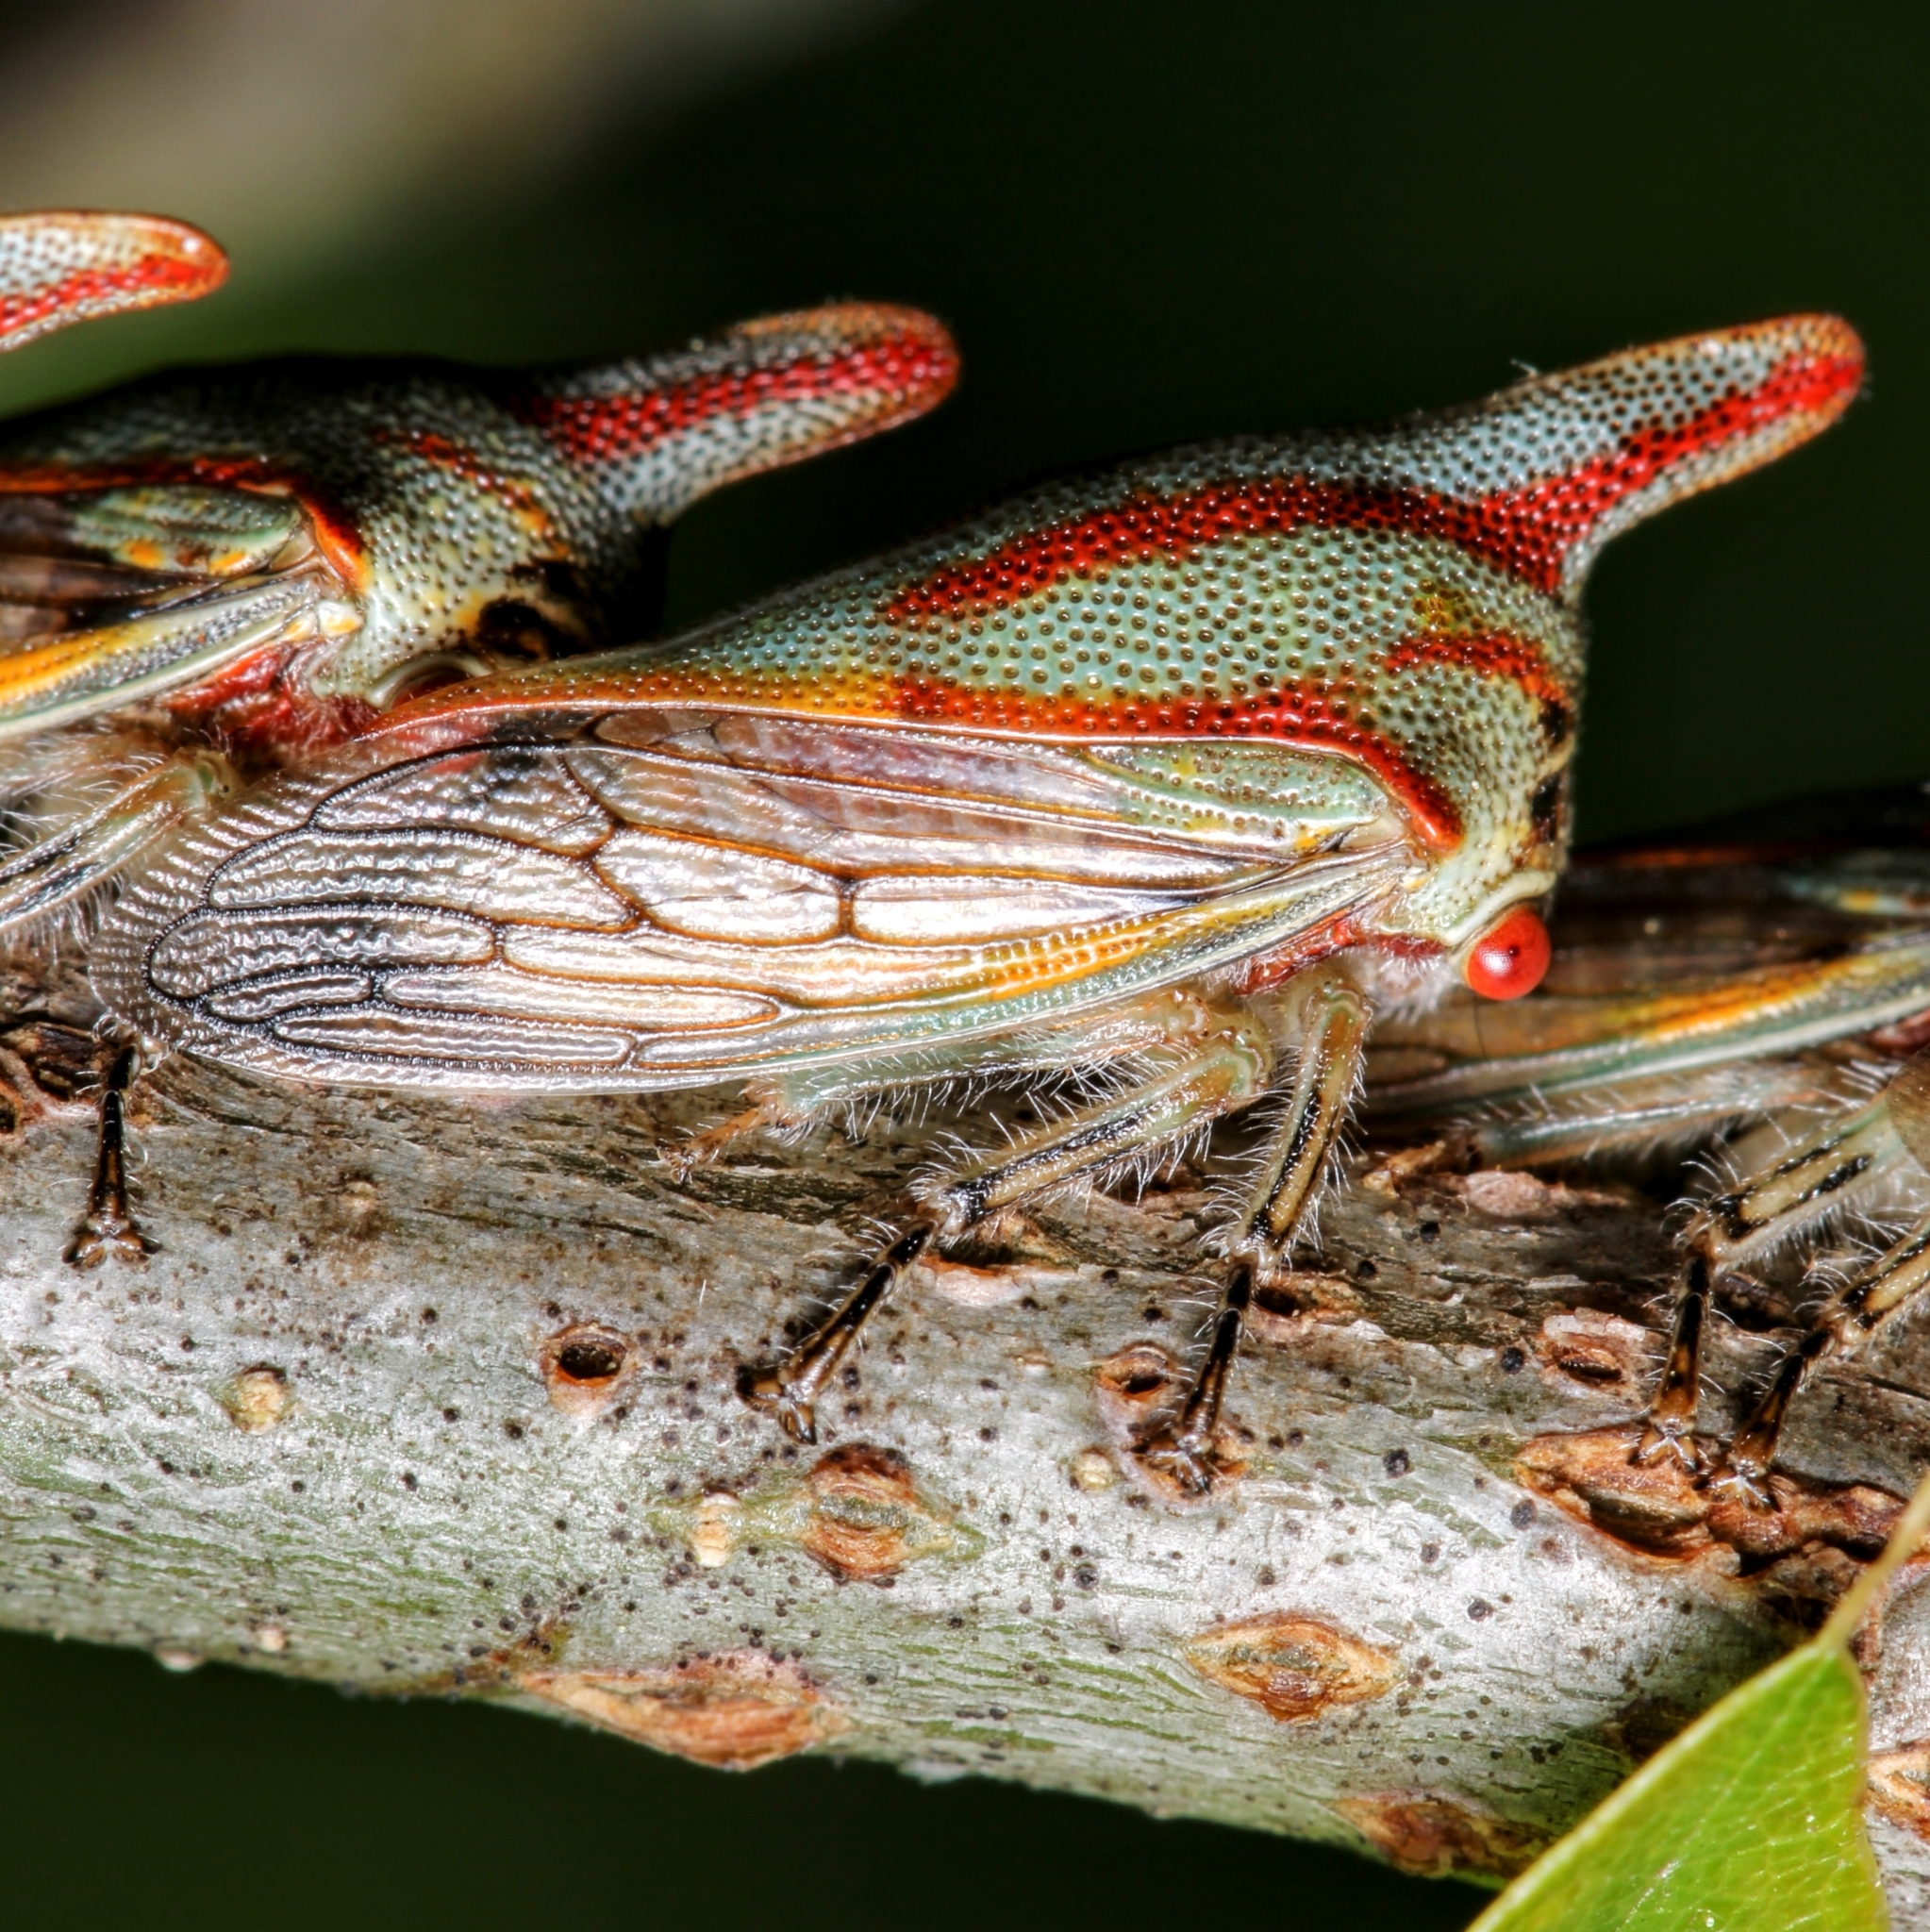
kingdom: Animalia
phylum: Arthropoda
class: Insecta
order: Hemiptera
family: Membracidae
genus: Platycotis
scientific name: Platycotis vittatus
